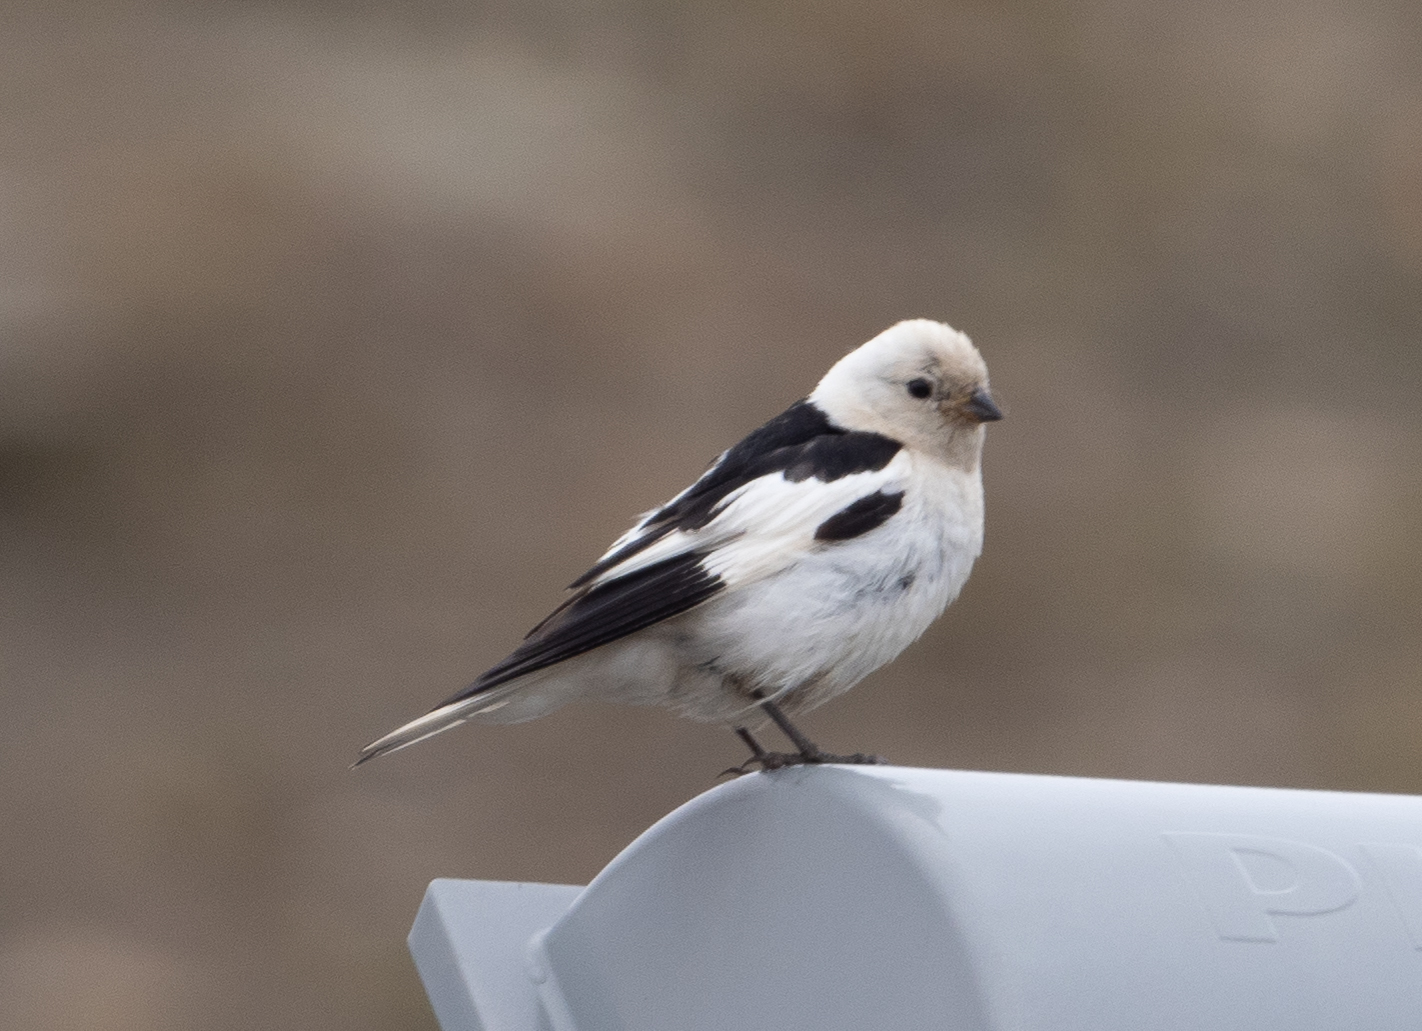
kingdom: Animalia
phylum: Chordata
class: Aves
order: Passeriformes
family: Calcariidae
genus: Plectrophenax
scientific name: Plectrophenax nivalis
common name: Snow bunting
